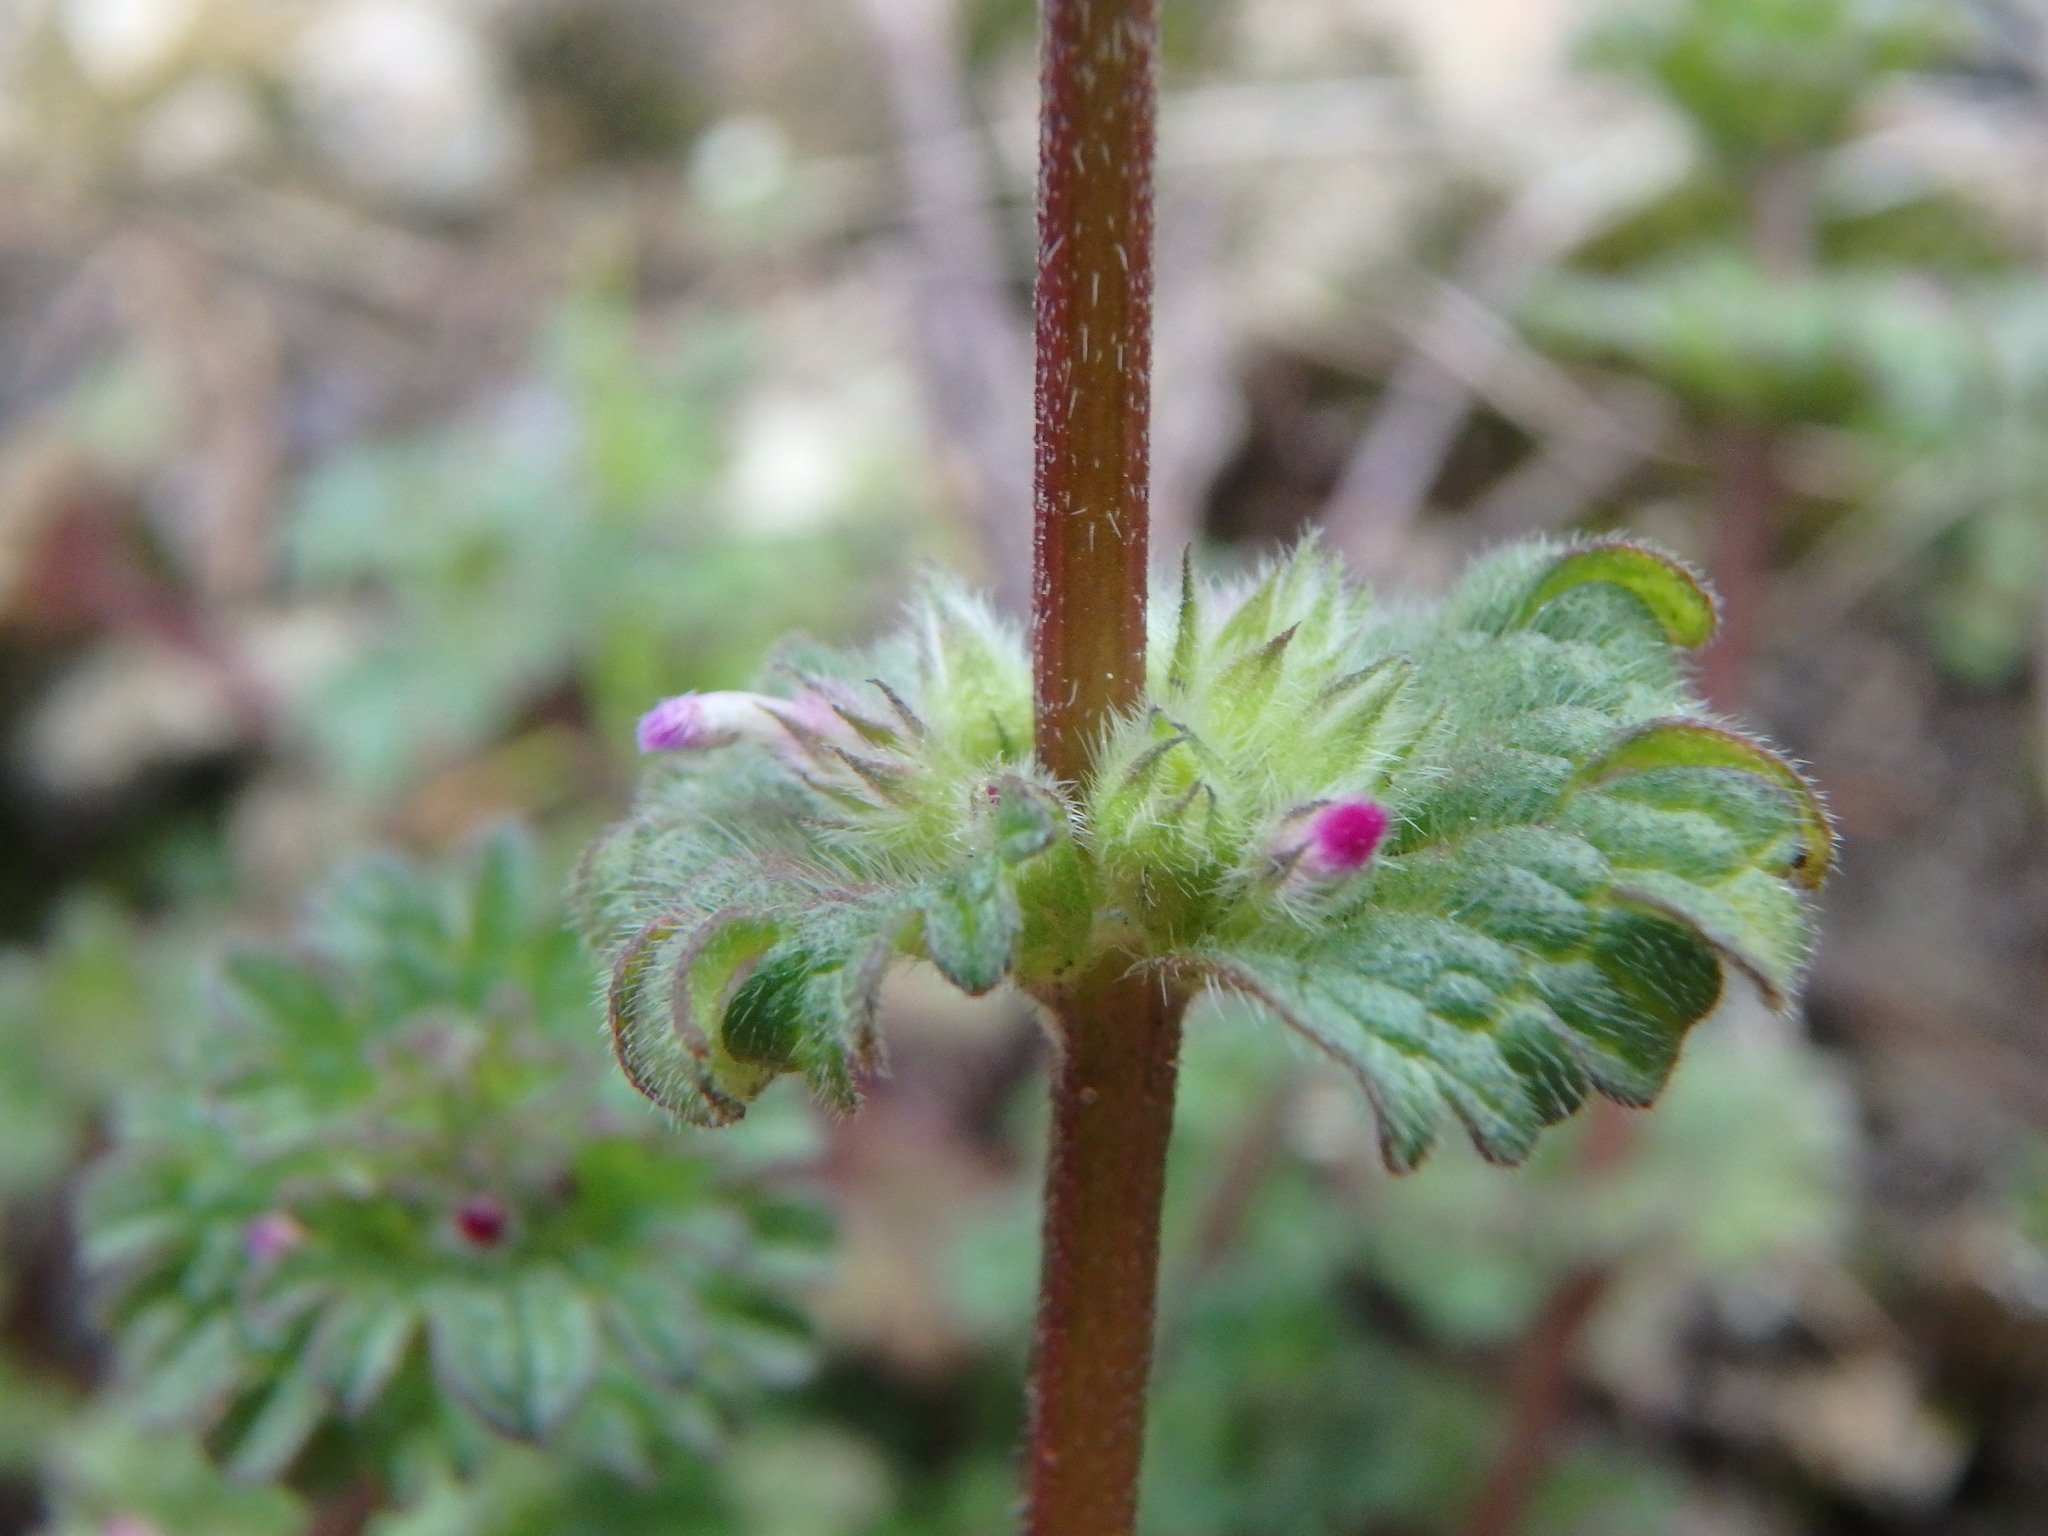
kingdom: Plantae
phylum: Tracheophyta
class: Magnoliopsida
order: Lamiales
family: Lamiaceae
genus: Lamium
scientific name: Lamium amplexicaule
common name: Henbit dead-nettle
